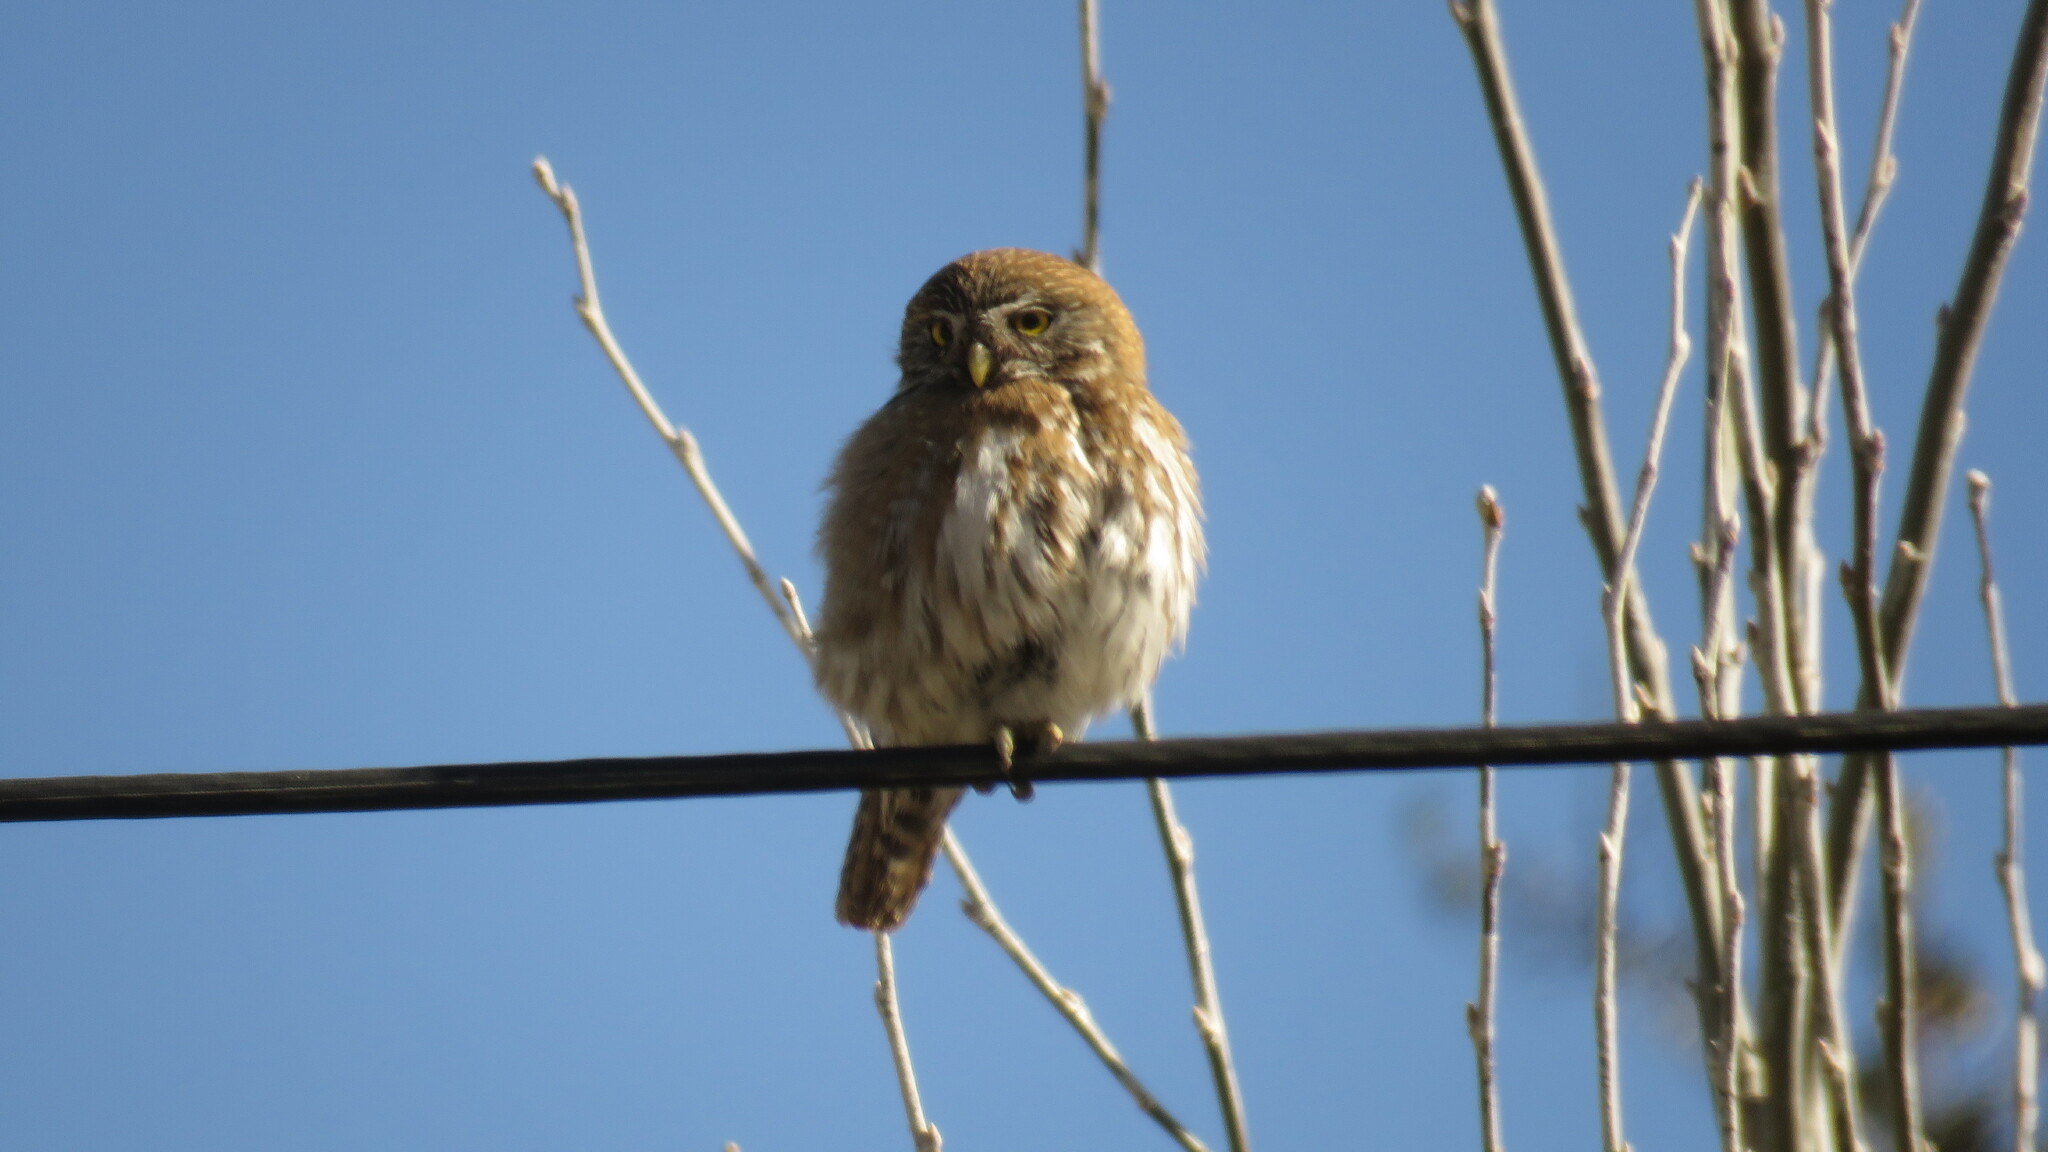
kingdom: Animalia
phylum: Chordata
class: Aves
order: Strigiformes
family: Strigidae
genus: Glaucidium
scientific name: Glaucidium nana
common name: Austral pygmy-owl
